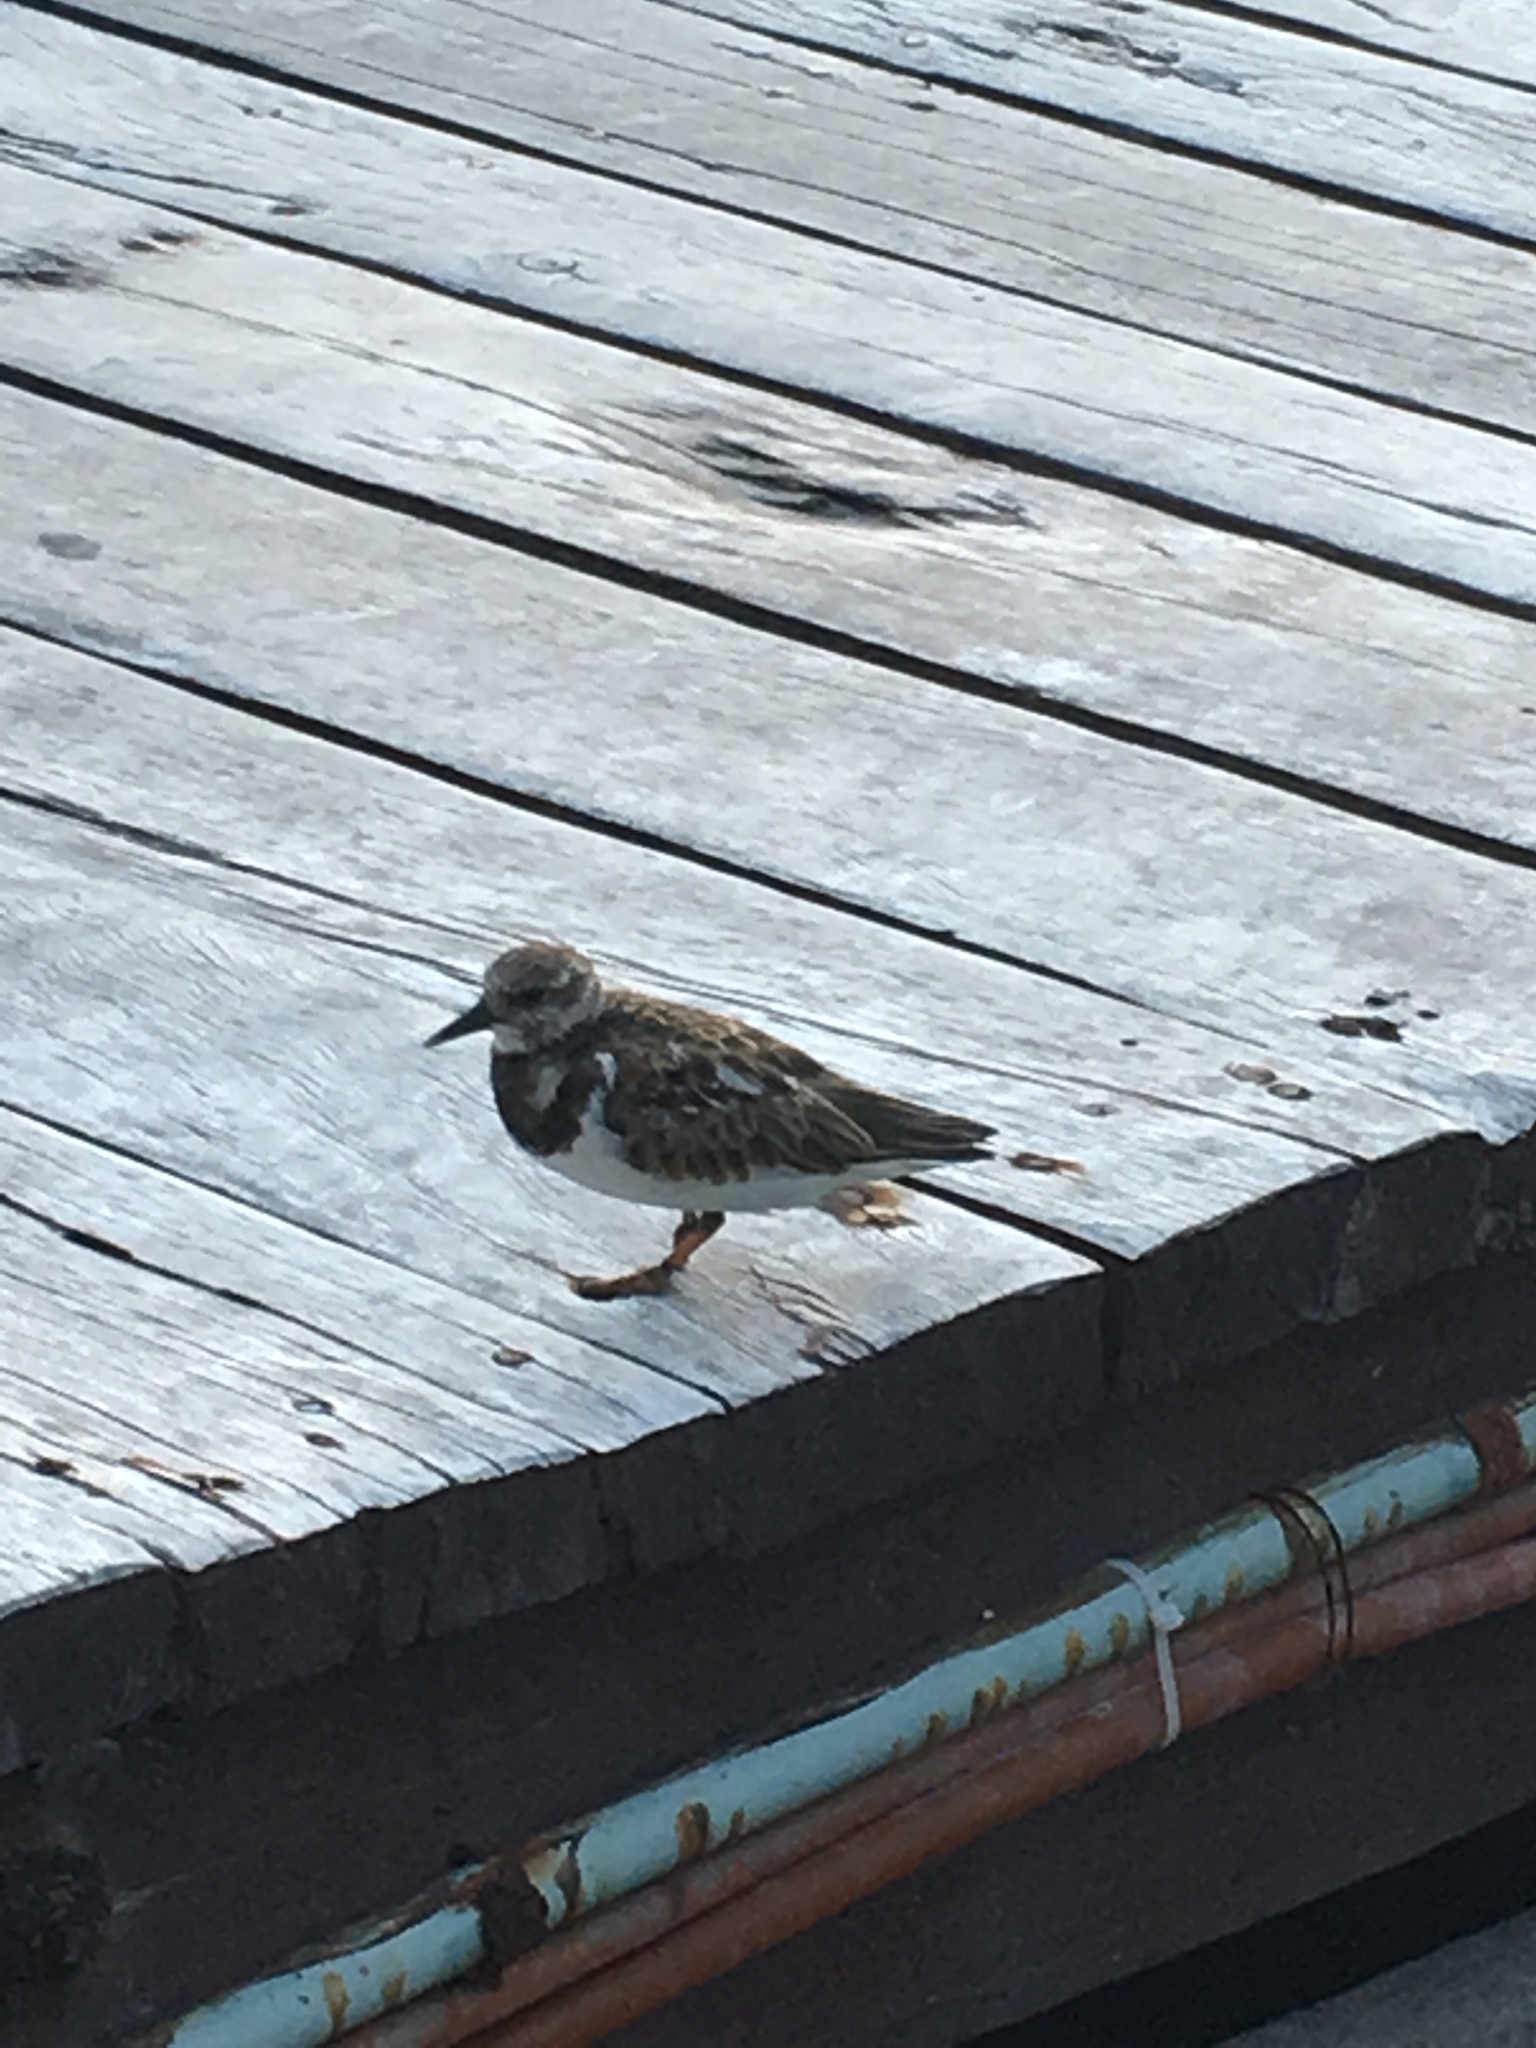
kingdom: Animalia
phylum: Chordata
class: Aves
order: Charadriiformes
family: Scolopacidae
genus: Arenaria
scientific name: Arenaria interpres
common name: Ruddy turnstone
